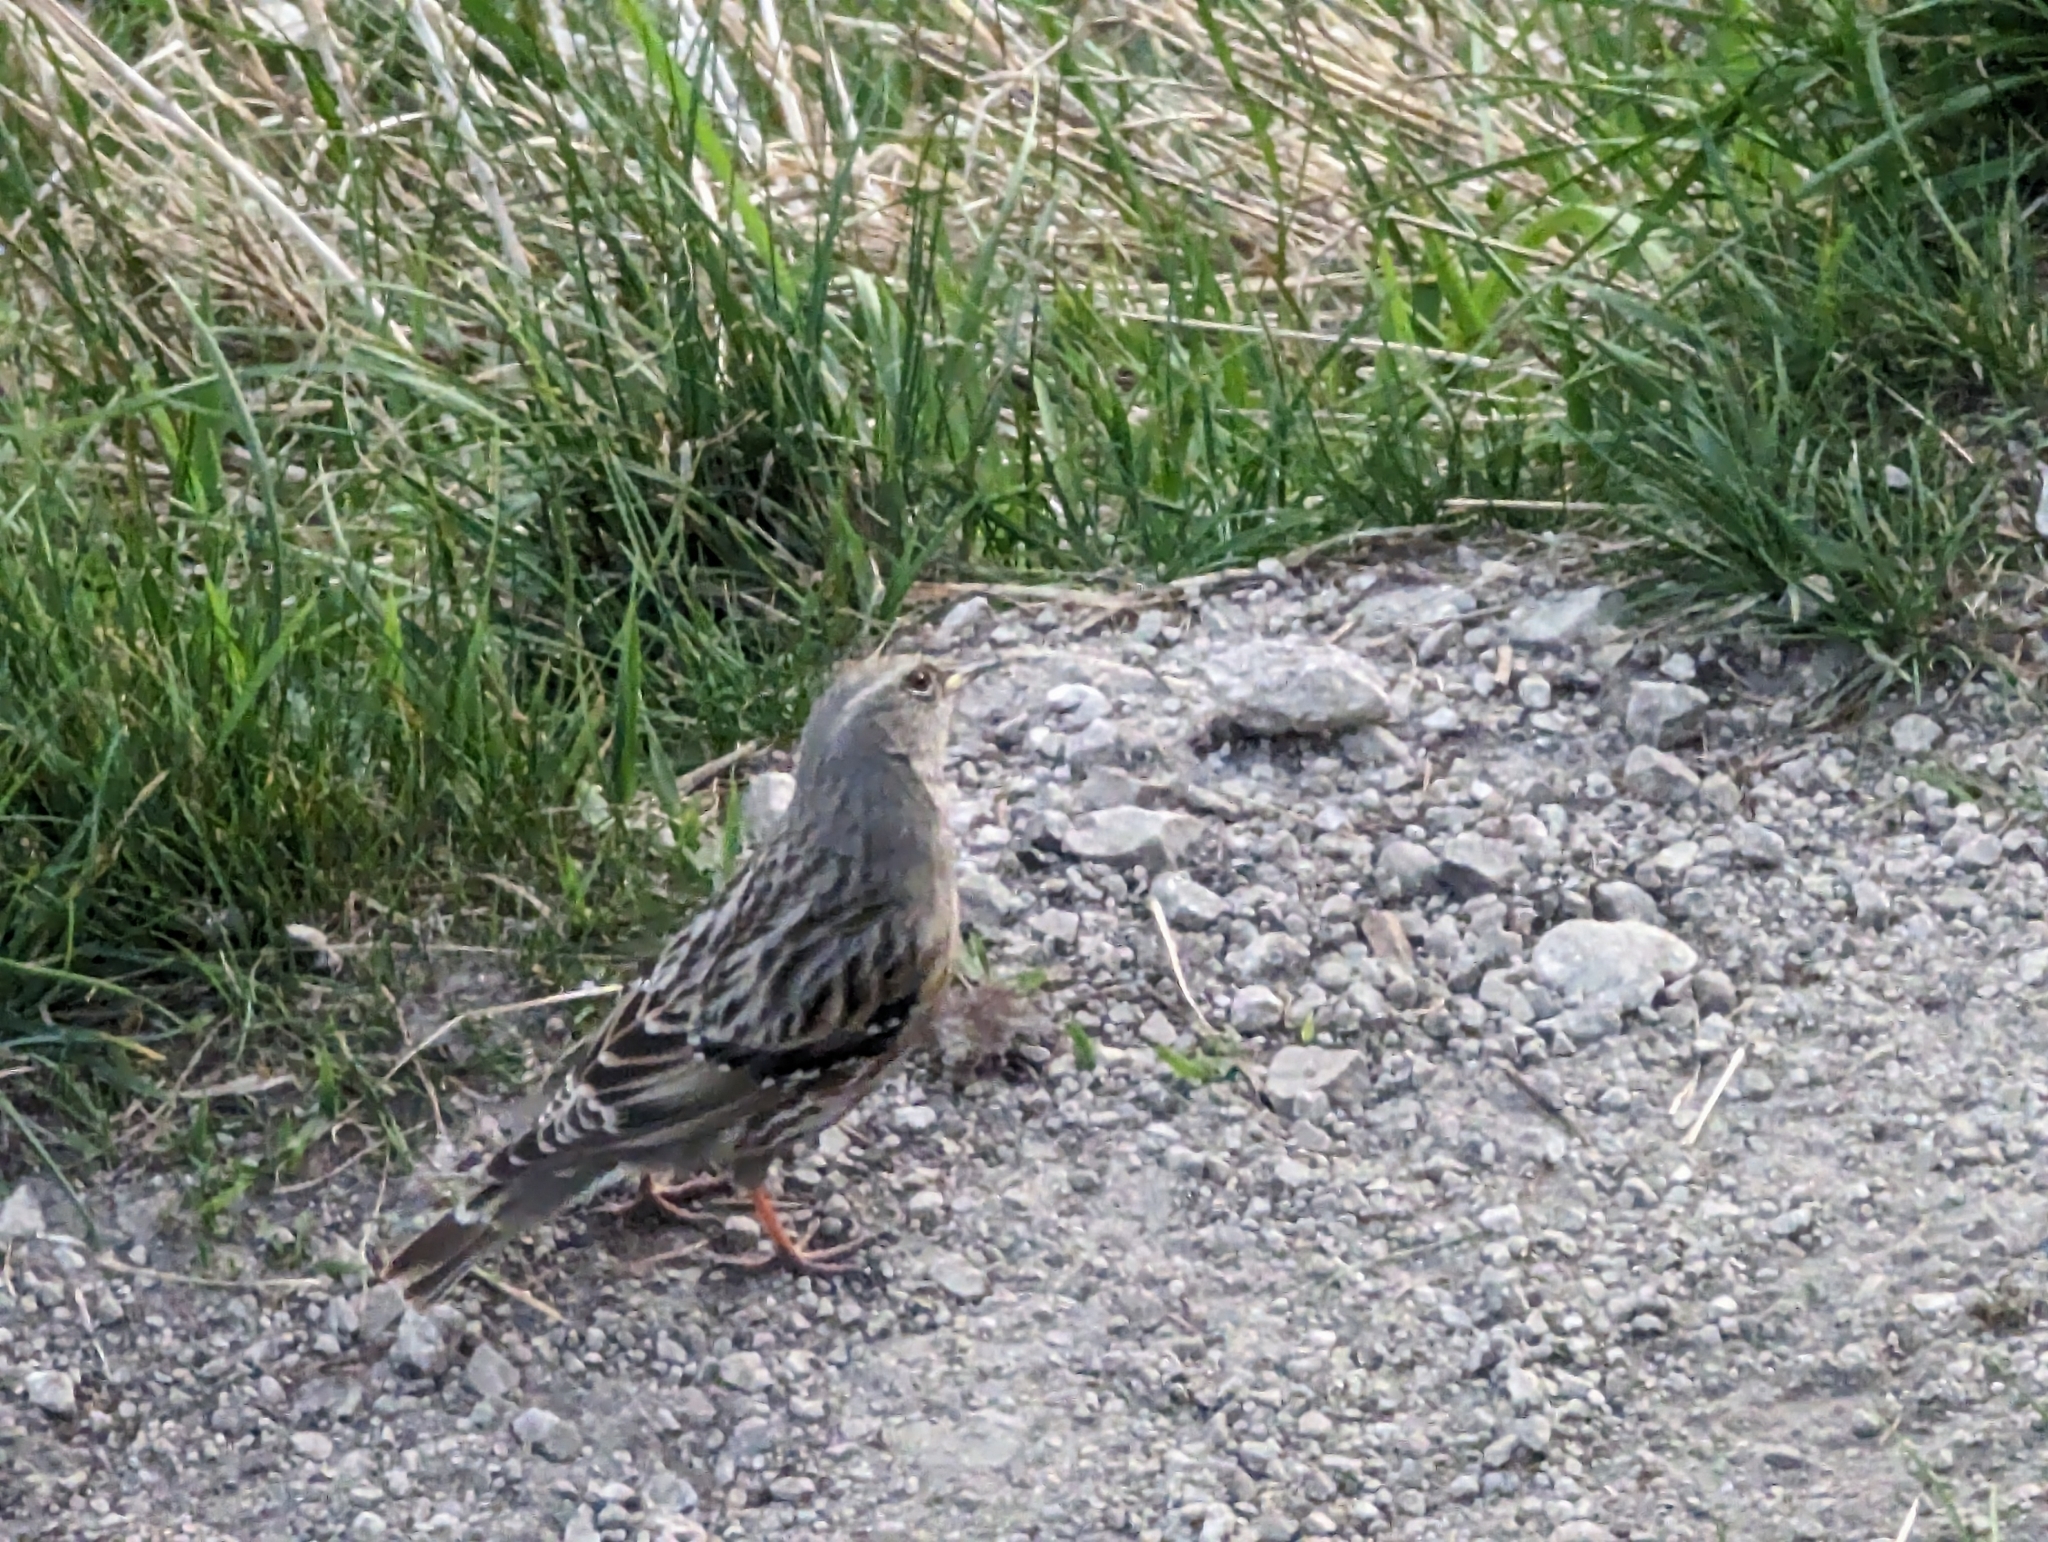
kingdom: Animalia
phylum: Chordata
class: Aves
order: Passeriformes
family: Prunellidae
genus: Prunella
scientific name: Prunella collaris
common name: Alpine accentor
